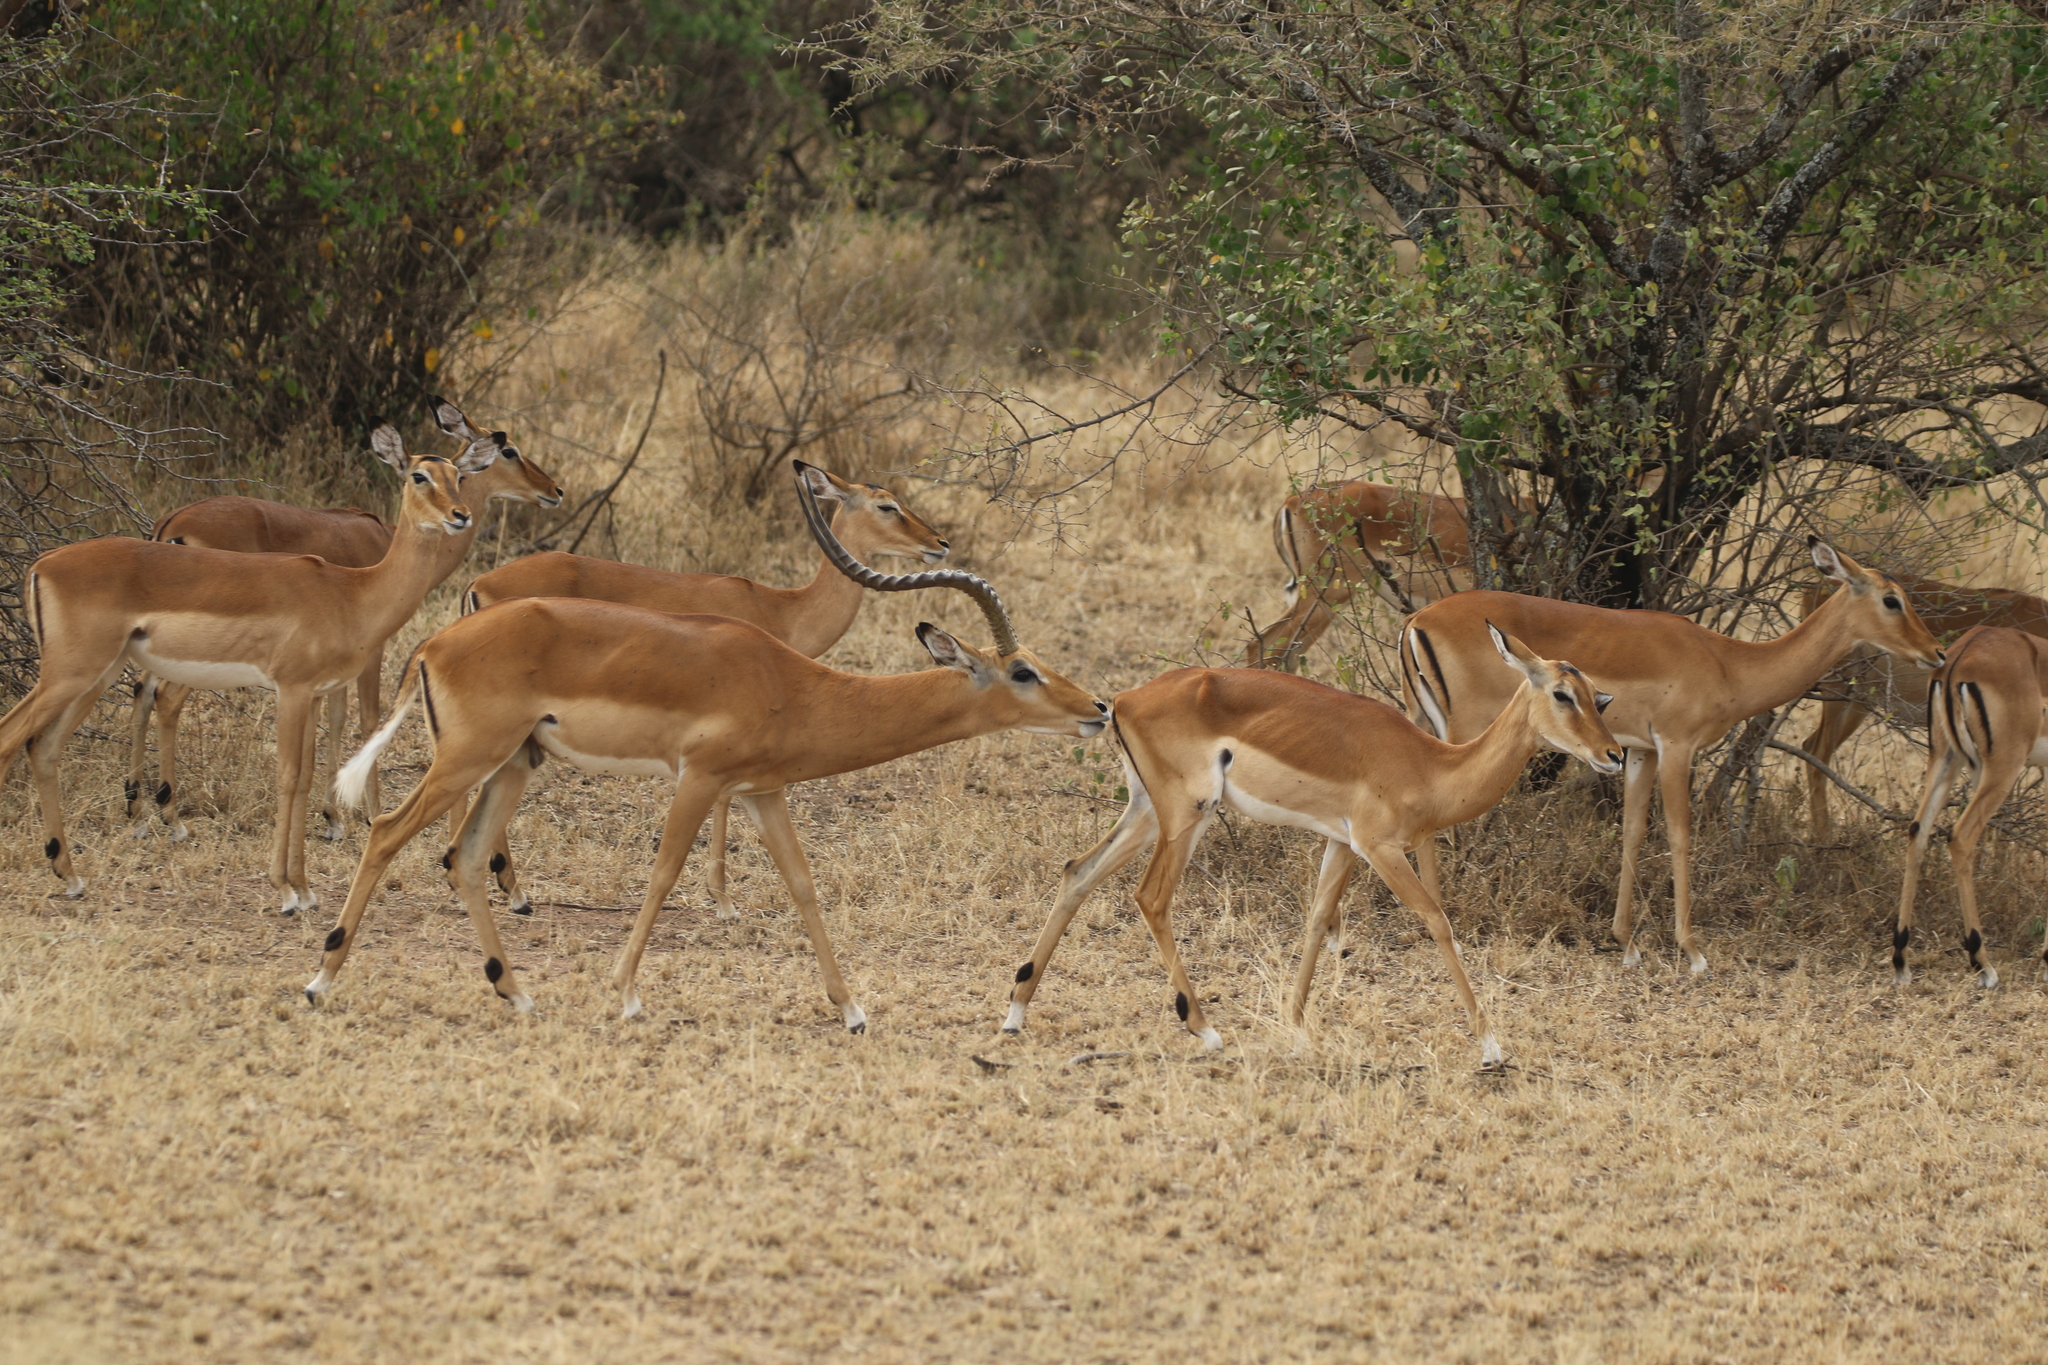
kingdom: Animalia
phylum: Chordata
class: Mammalia
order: Artiodactyla
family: Bovidae
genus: Aepyceros
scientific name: Aepyceros melampus
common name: Impala
